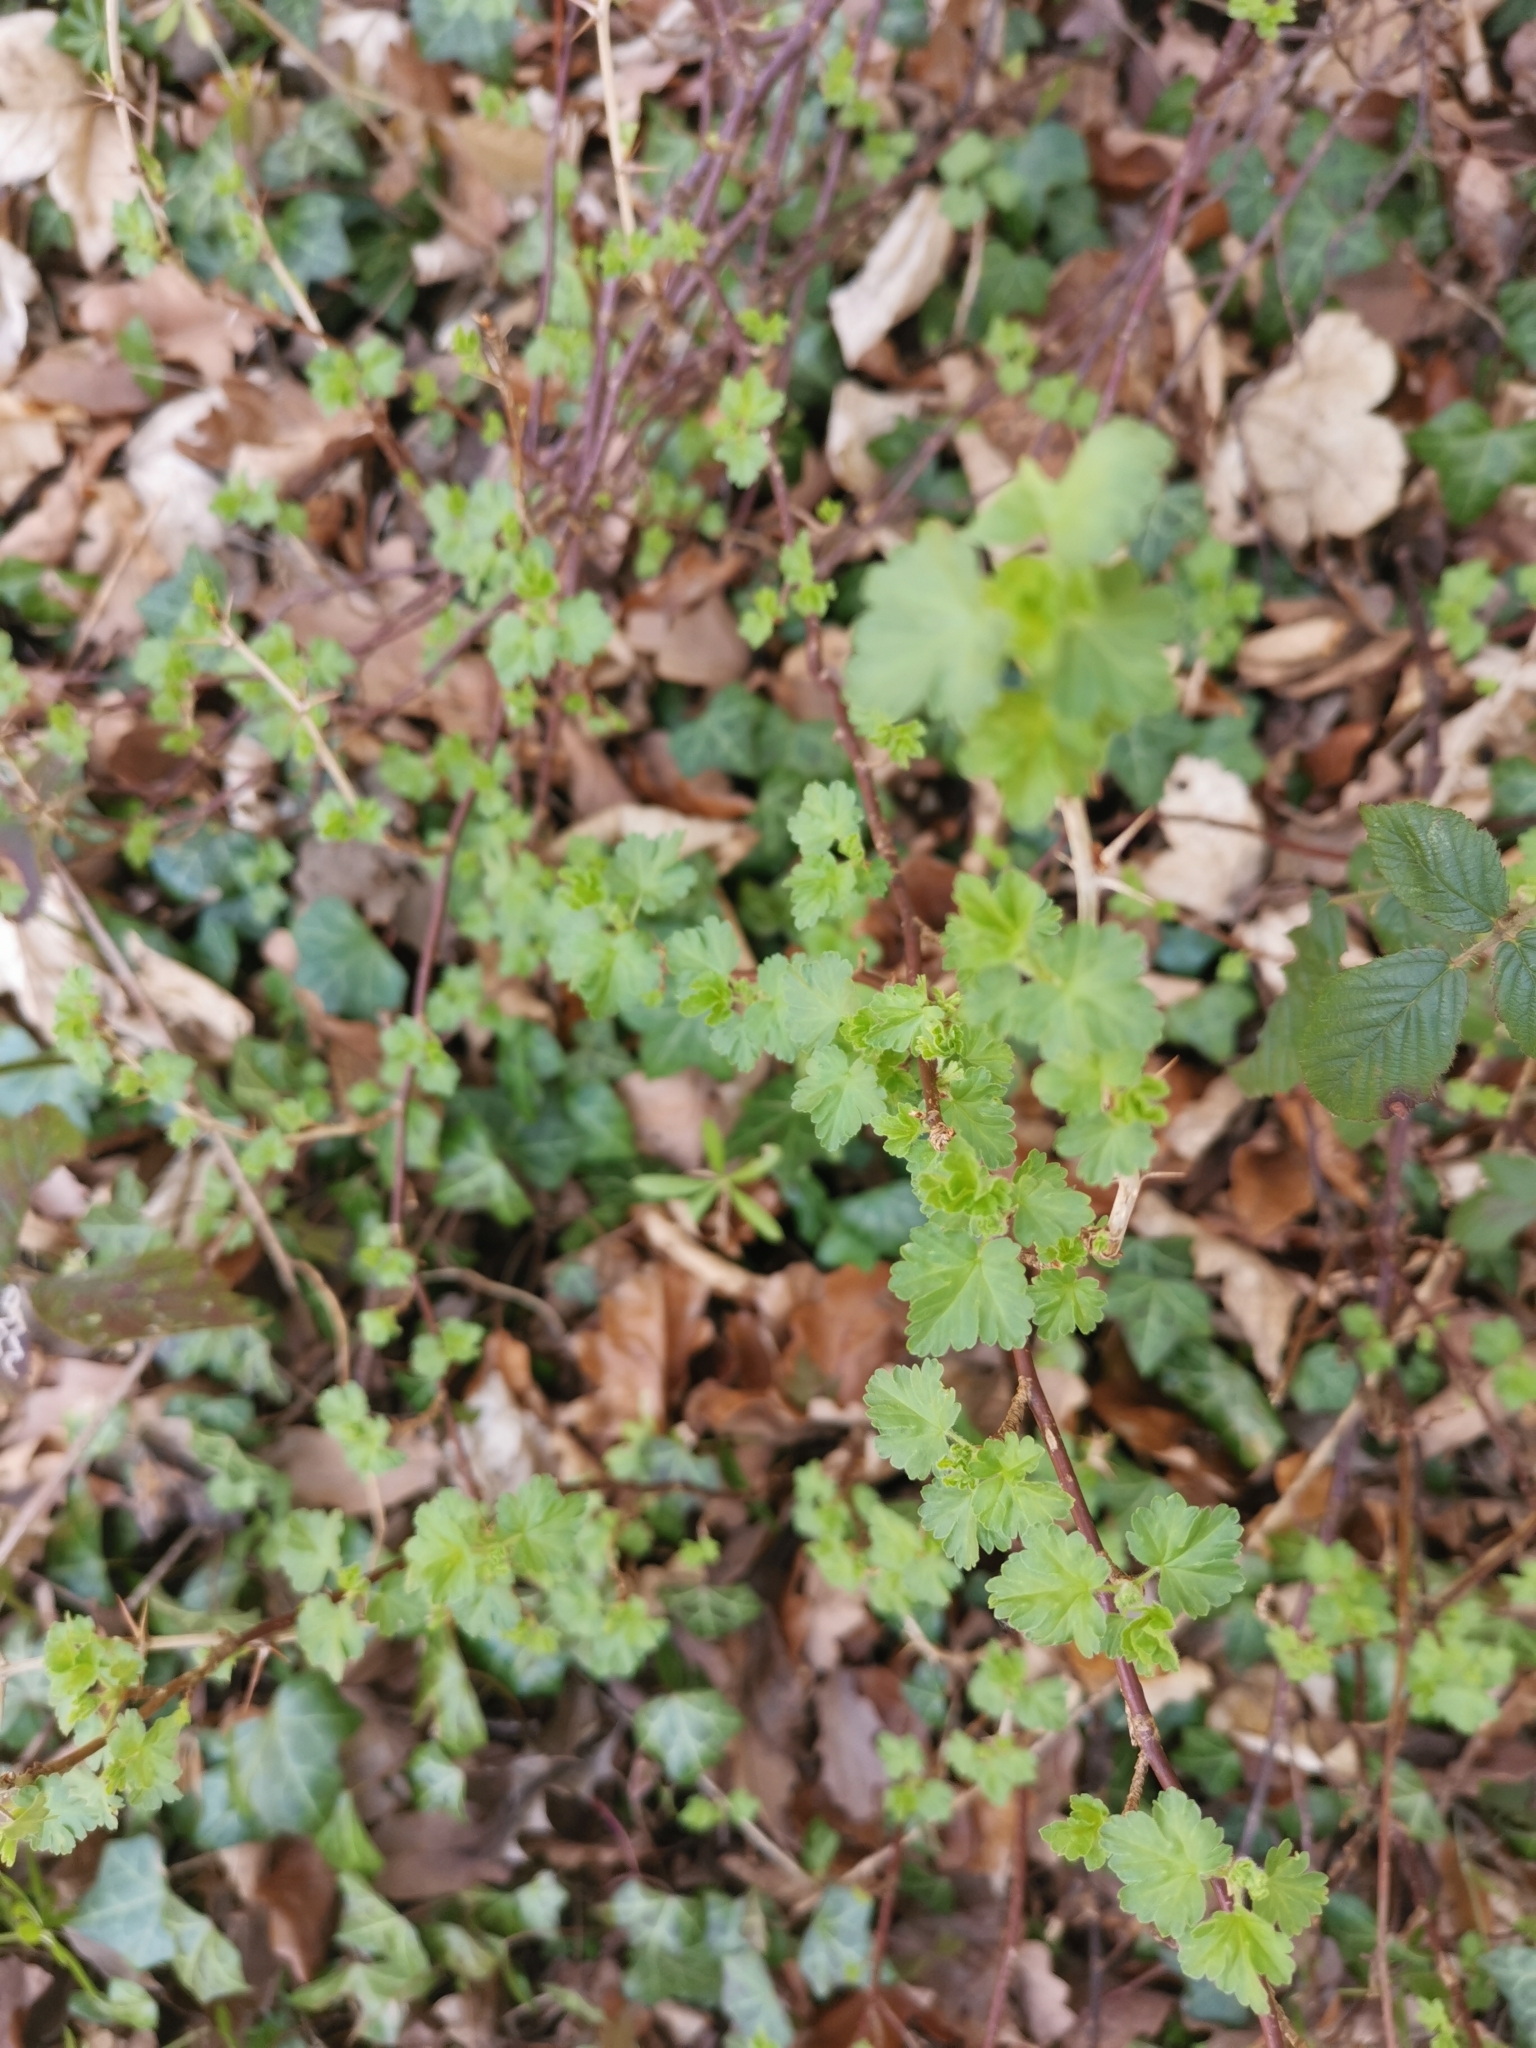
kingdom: Plantae
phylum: Tracheophyta
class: Magnoliopsida
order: Saxifragales
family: Grossulariaceae
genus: Ribes
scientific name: Ribes uva-crispa
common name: Gooseberry
